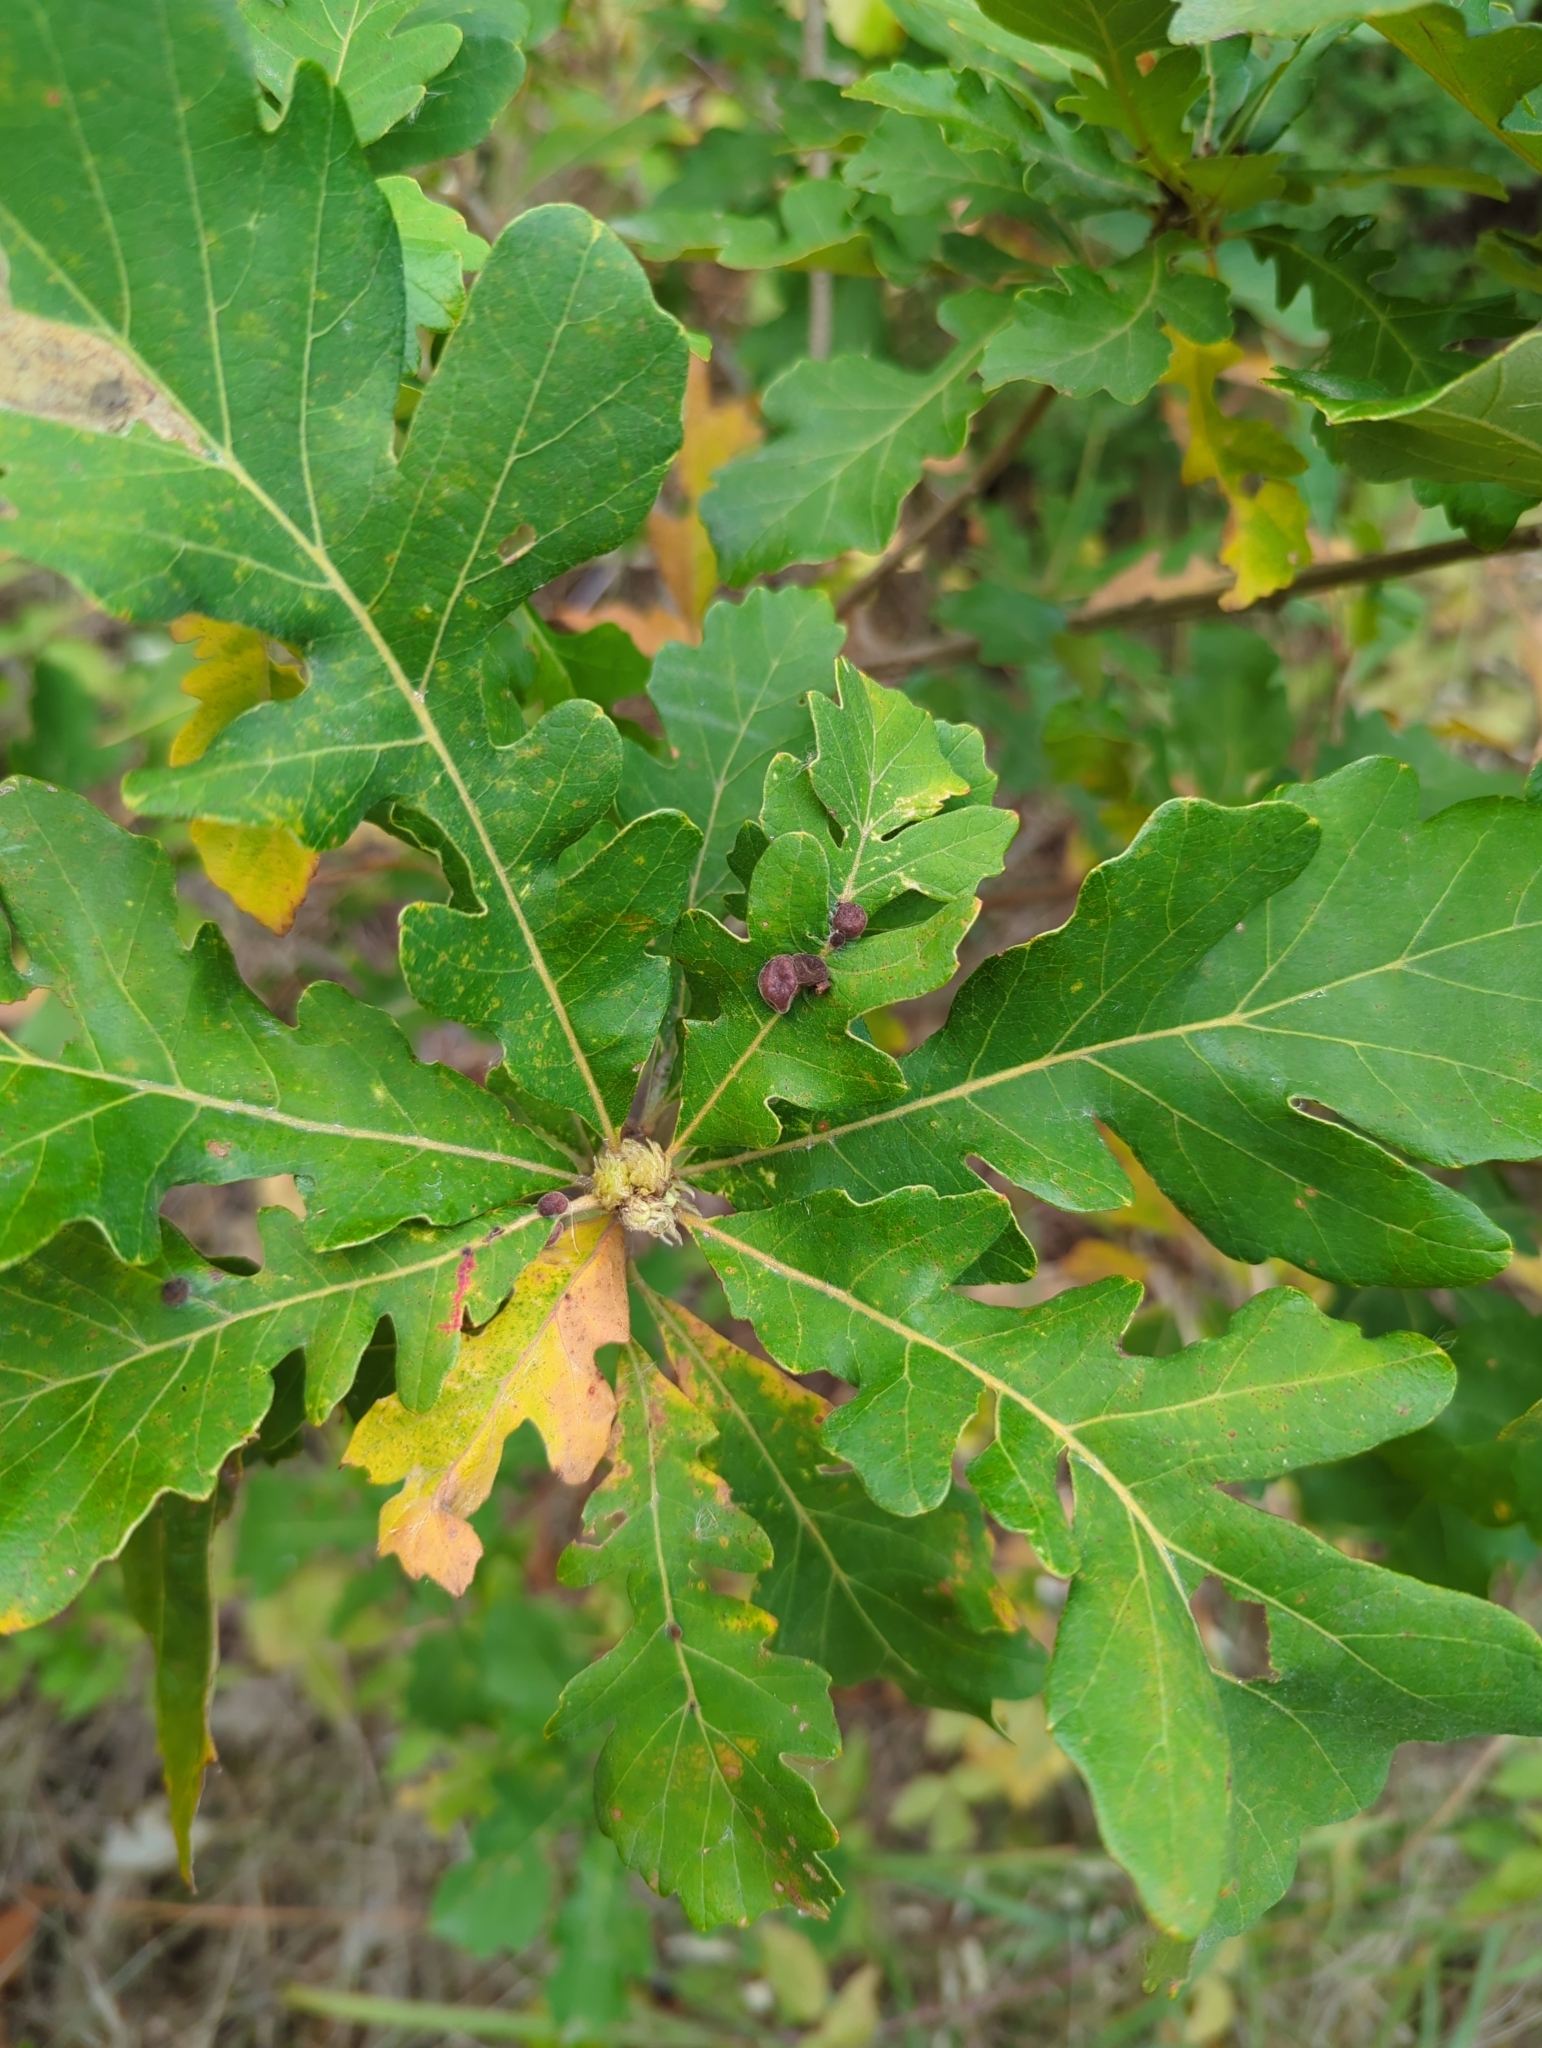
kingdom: Animalia
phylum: Arthropoda
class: Insecta
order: Hymenoptera
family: Cynipidae
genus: Trigonaspis
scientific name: Trigonaspis quercusforticornis
